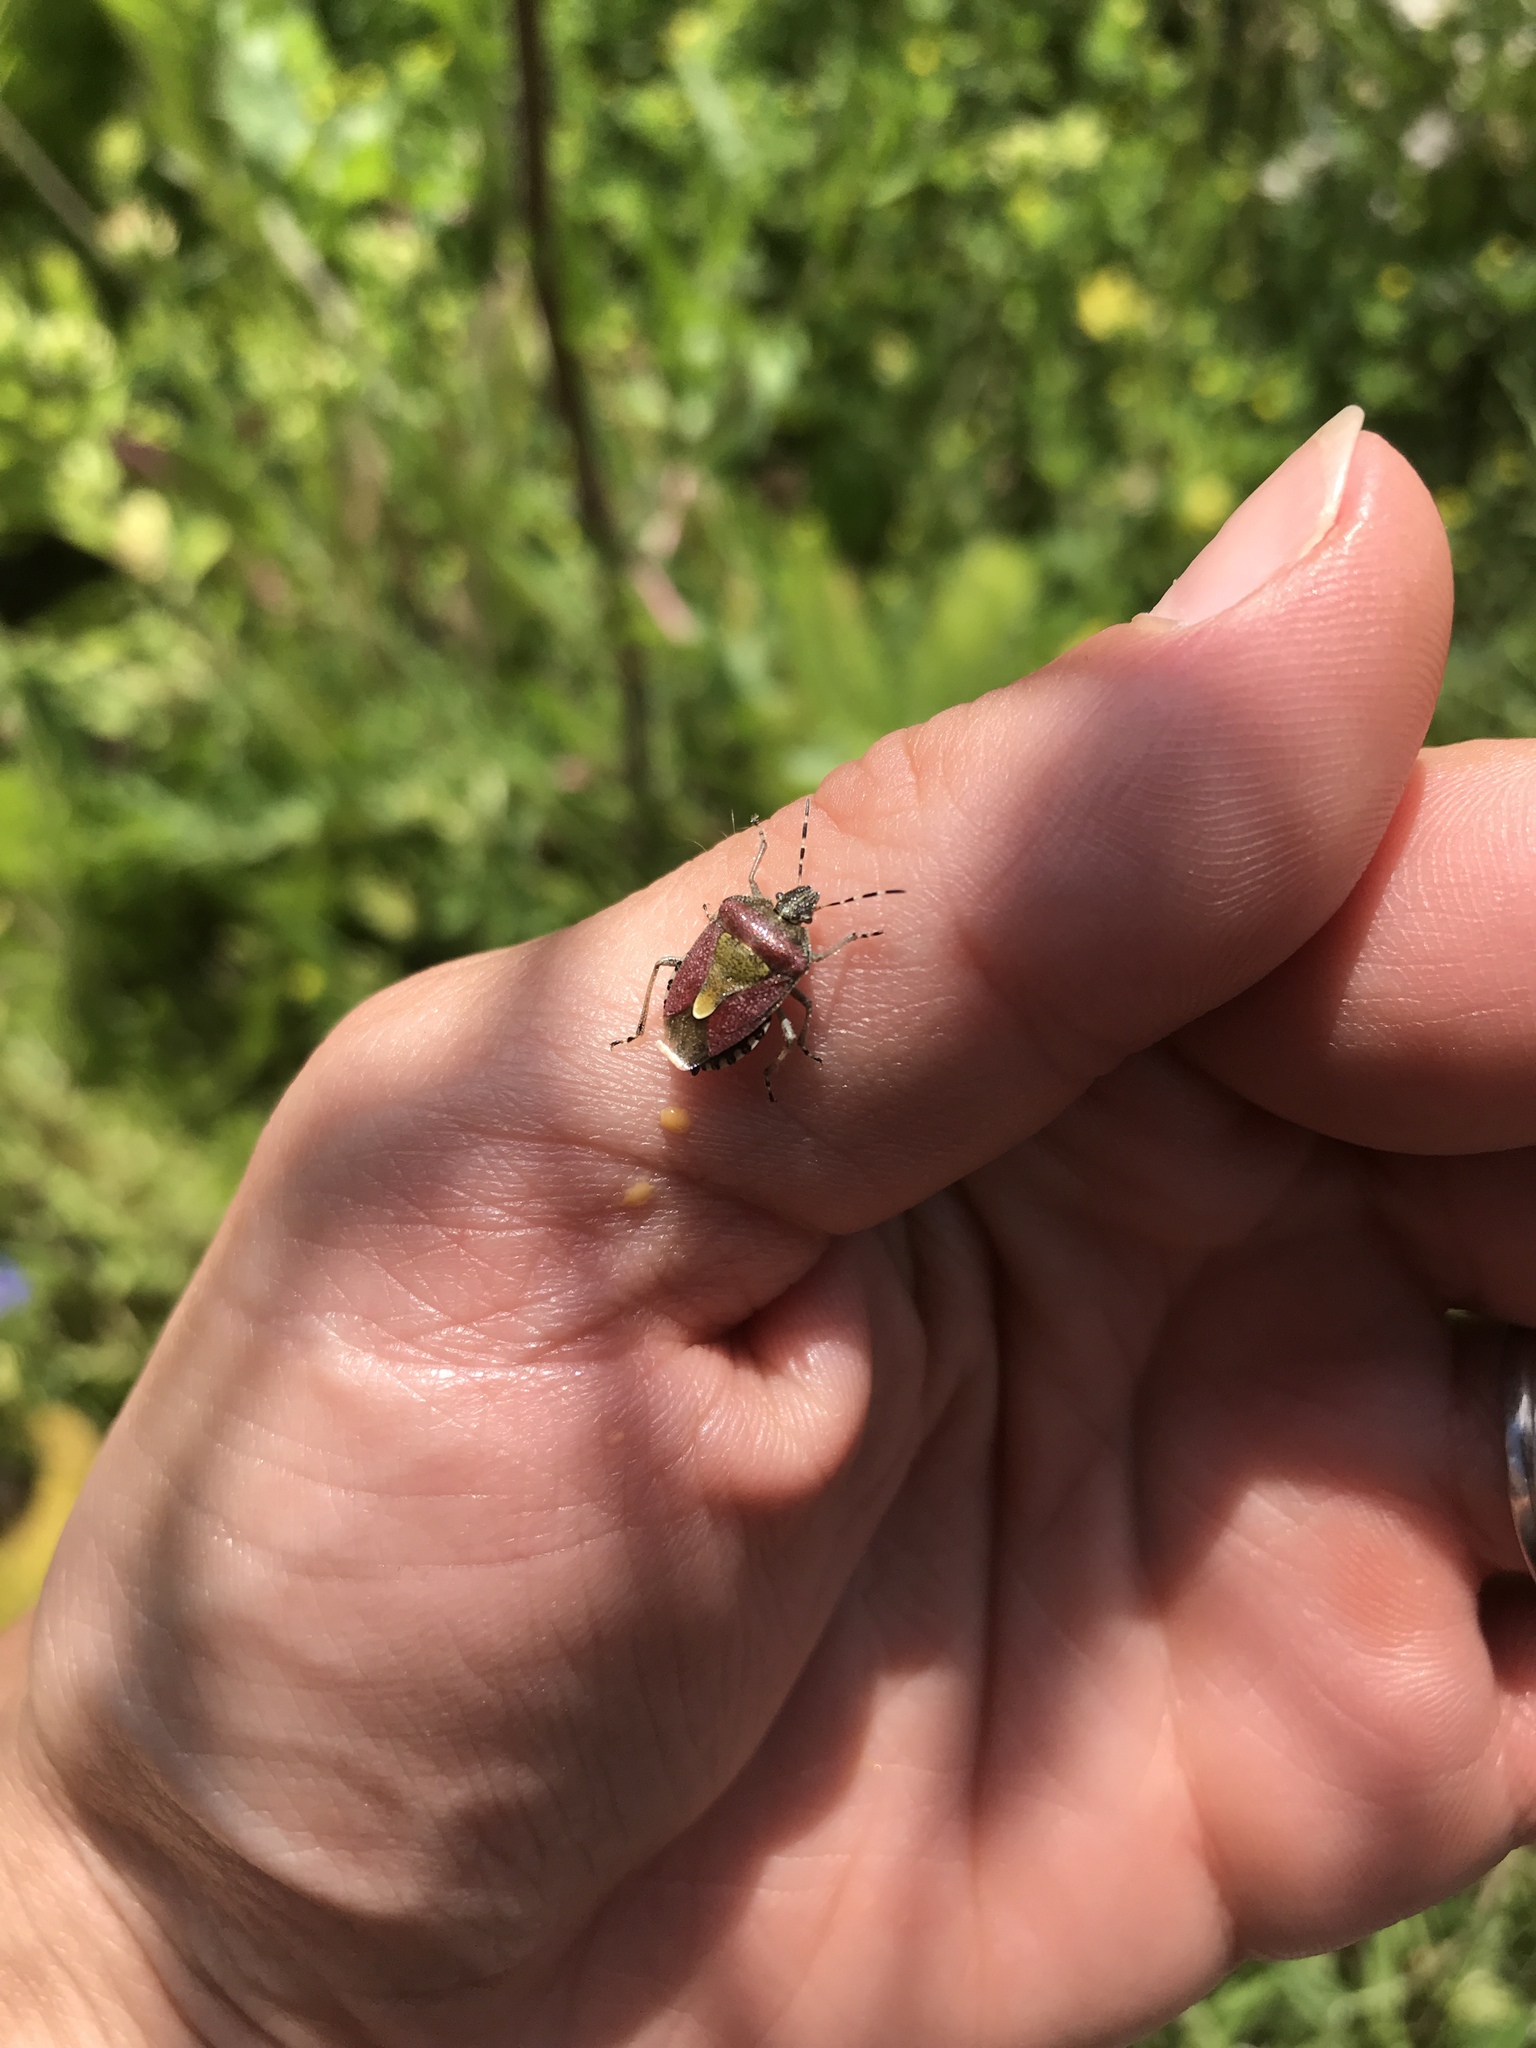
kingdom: Animalia
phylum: Arthropoda
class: Insecta
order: Hemiptera
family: Pentatomidae
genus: Dolycoris
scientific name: Dolycoris baccarum
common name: Sloe bug
